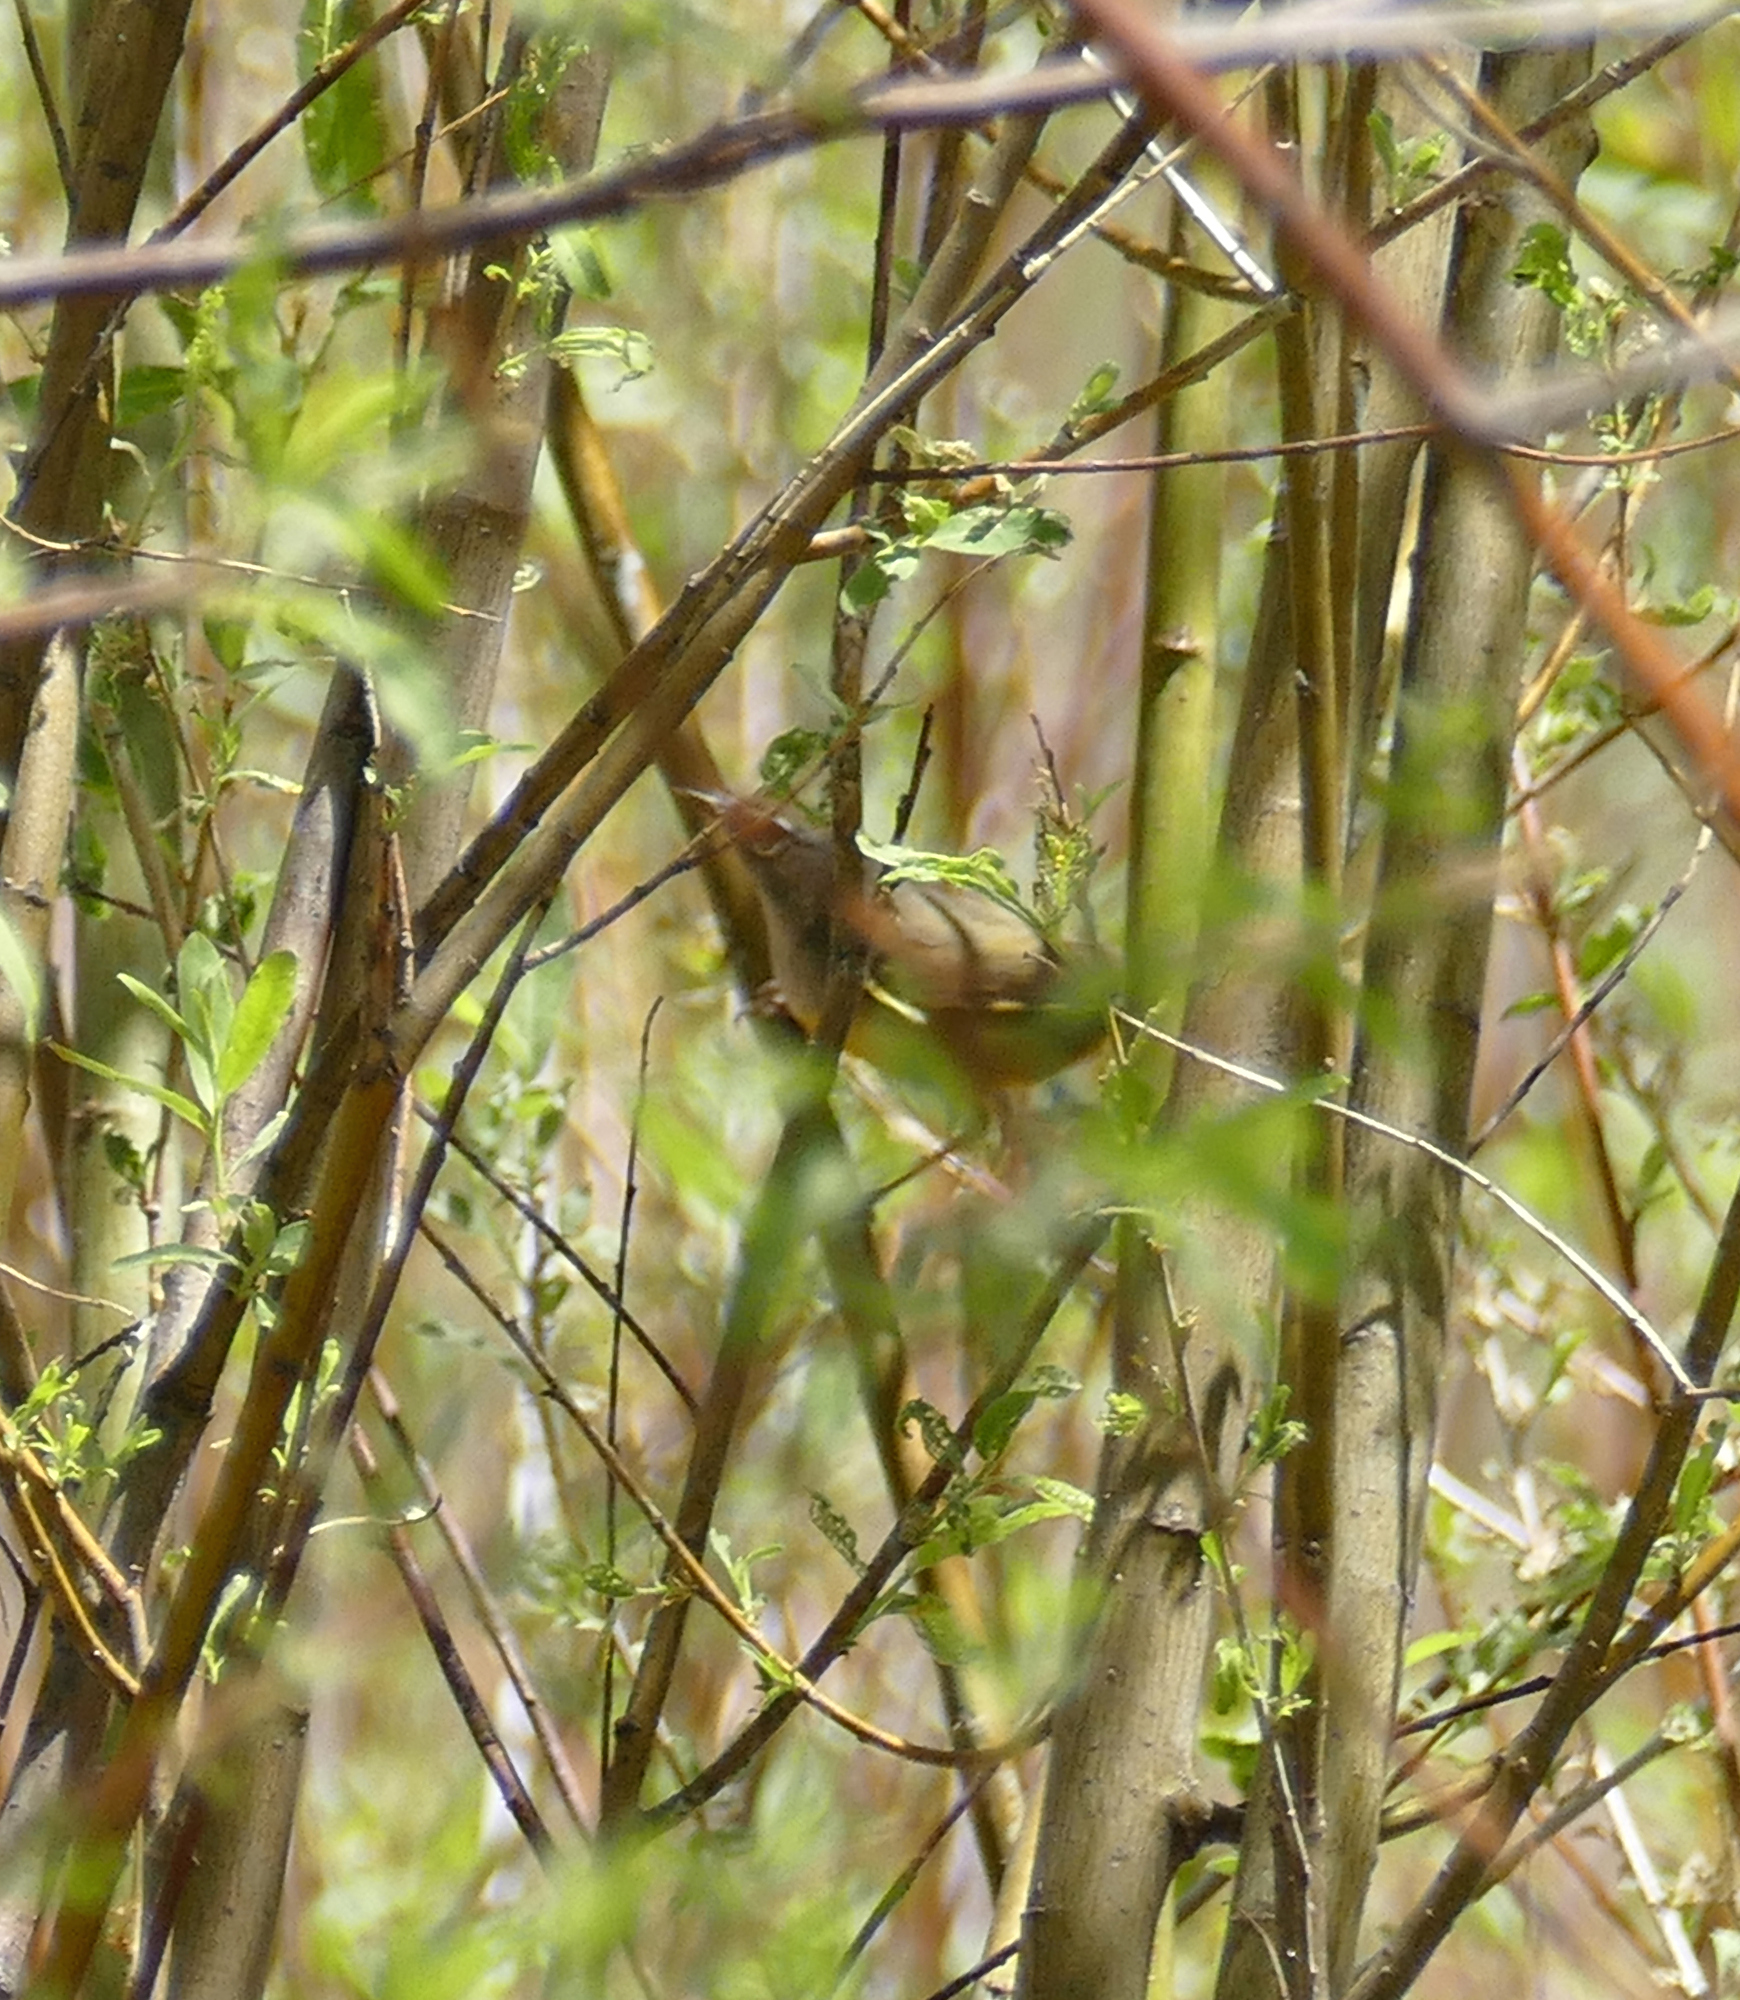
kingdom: Animalia
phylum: Chordata
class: Aves
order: Passeriformes
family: Parulidae
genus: Geothlypis
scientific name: Geothlypis tolmiei
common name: Macgillivray's warbler
